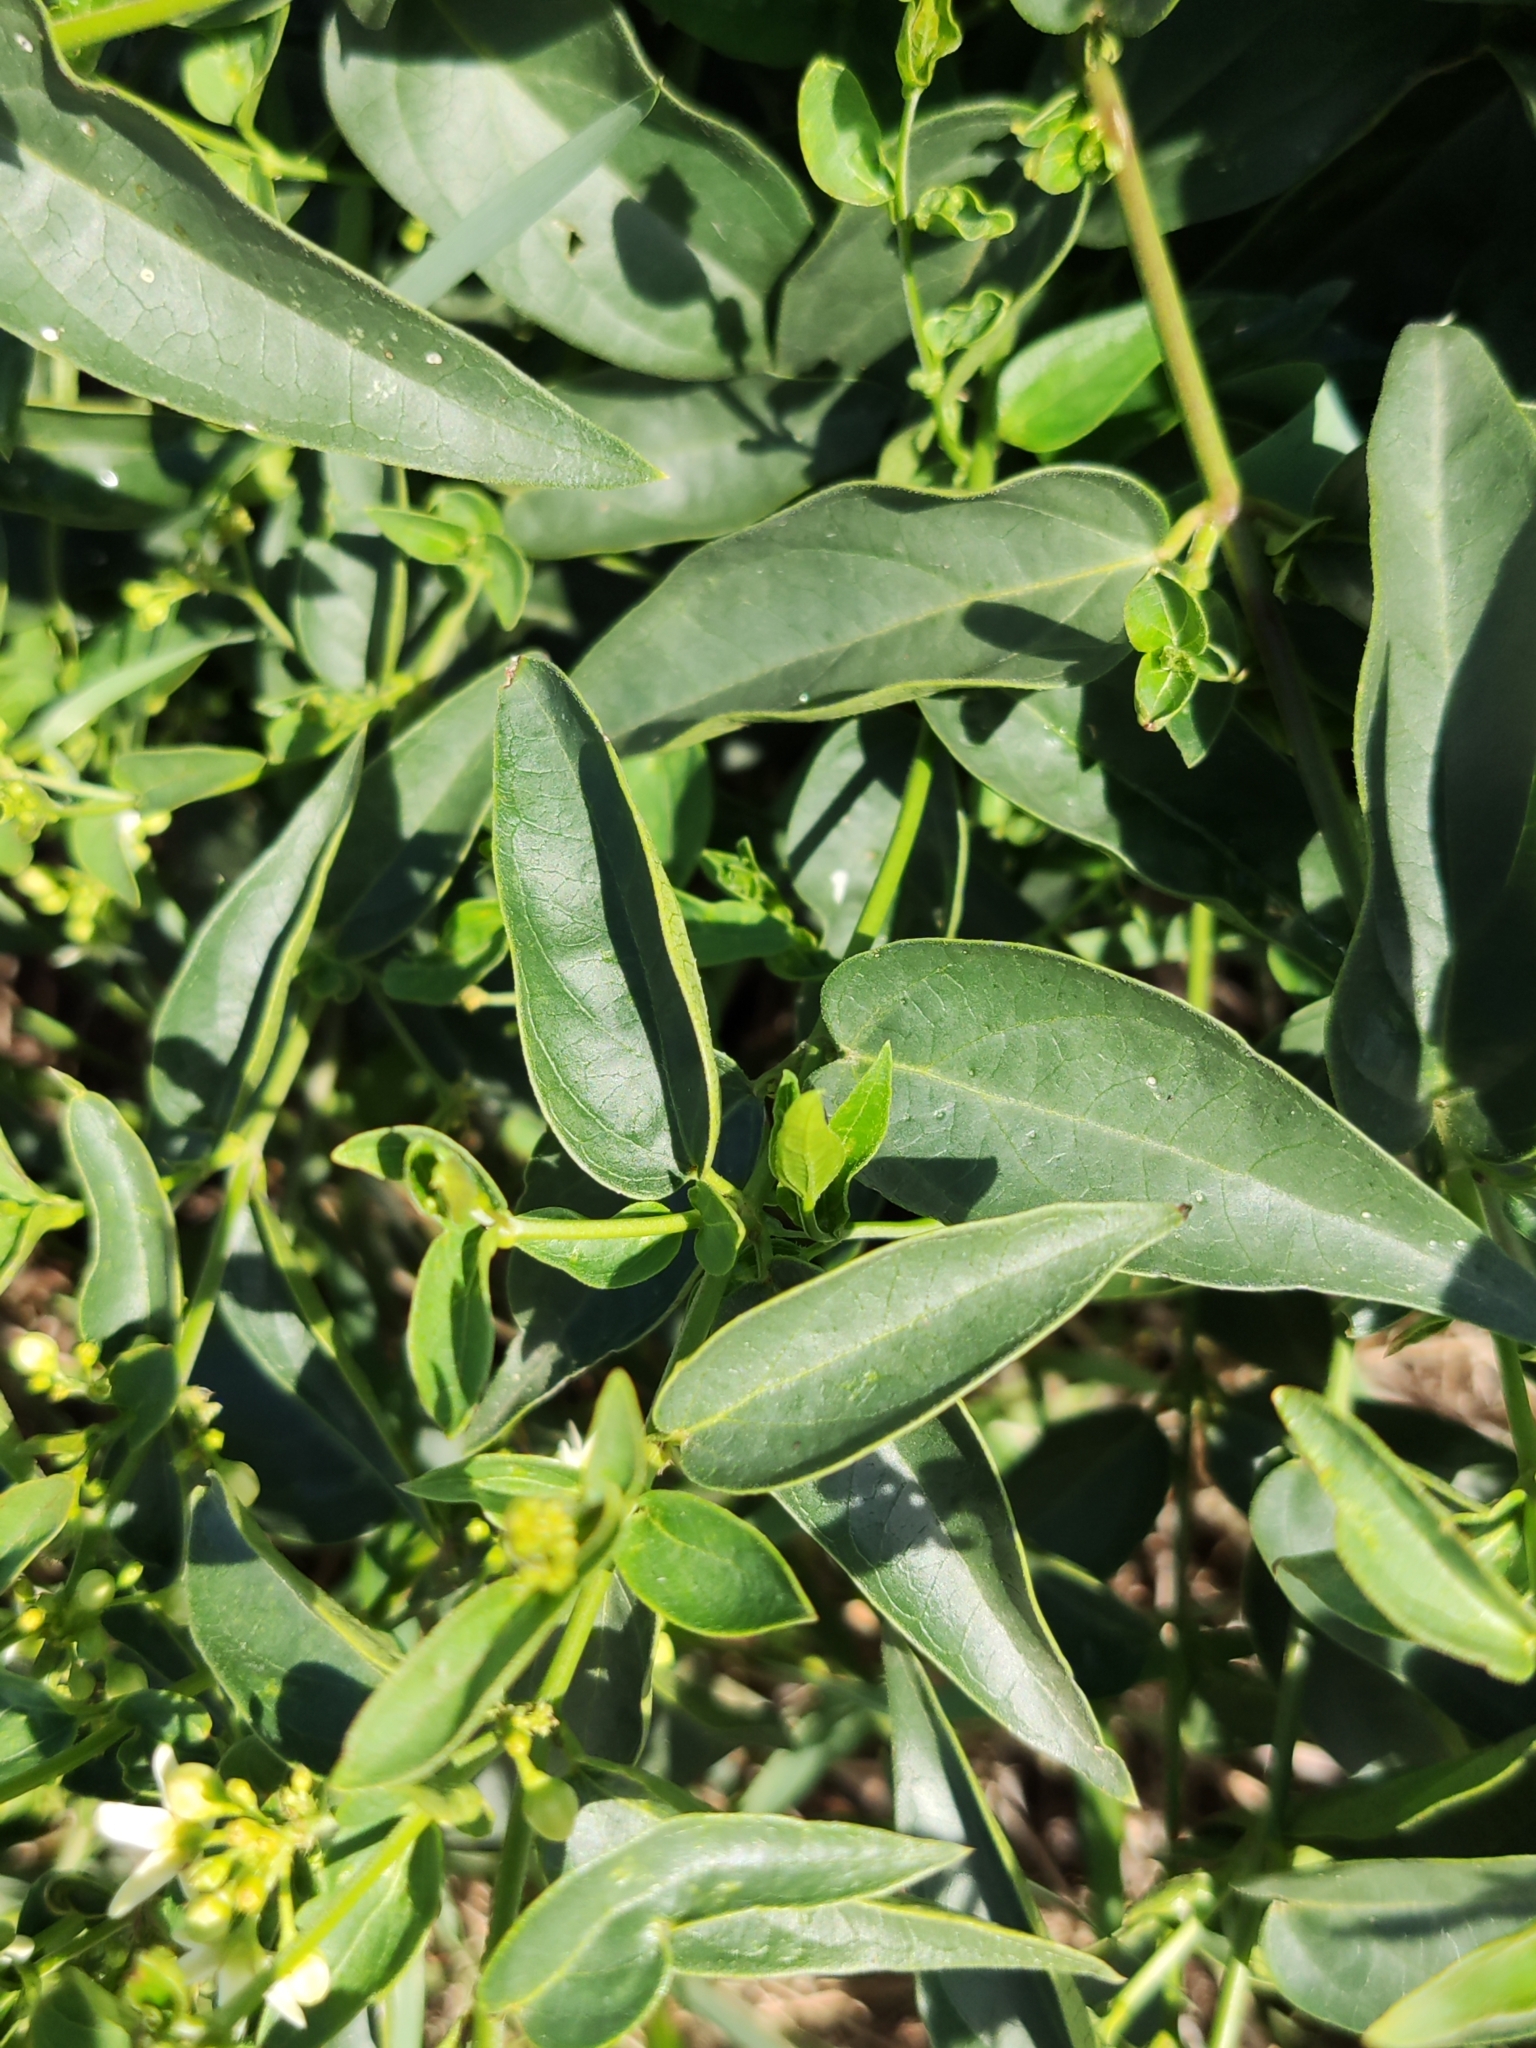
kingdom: Plantae
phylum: Tracheophyta
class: Magnoliopsida
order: Gentianales
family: Apocynaceae
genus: Vincetoxicum
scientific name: Vincetoxicum hirundinaria
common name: White swallowwort
